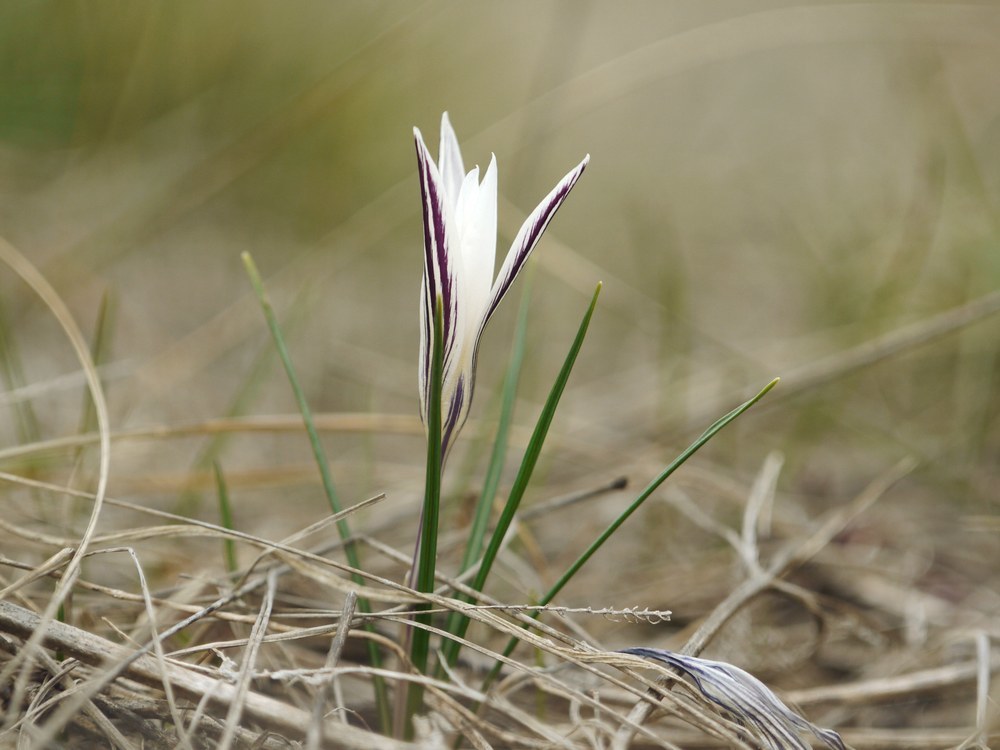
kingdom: Plantae
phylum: Tracheophyta
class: Liliopsida
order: Asparagales
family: Iridaceae
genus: Crocus
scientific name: Crocus reticulatus
